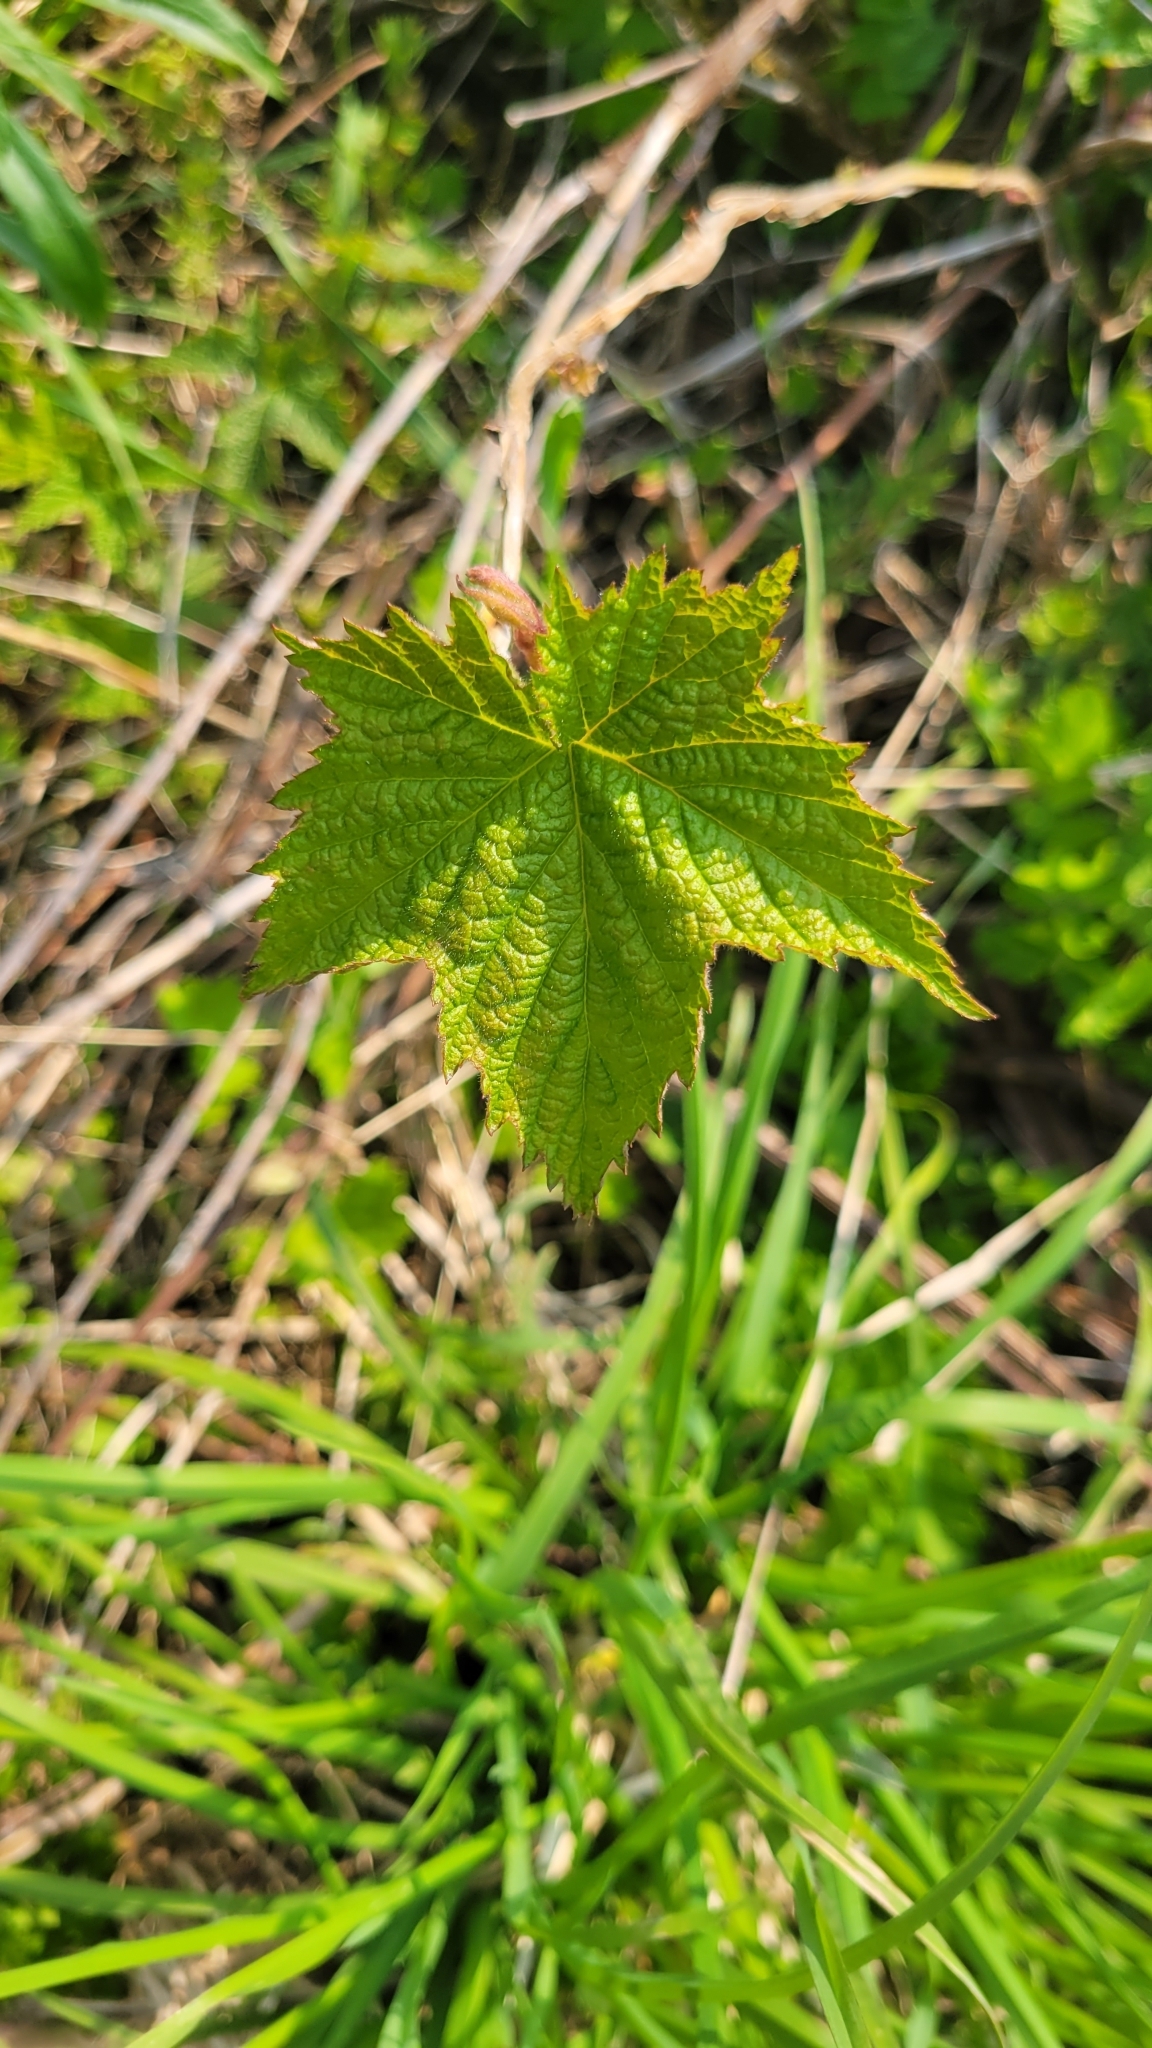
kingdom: Plantae
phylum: Tracheophyta
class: Magnoliopsida
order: Rosales
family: Rosaceae
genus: Rubus
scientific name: Rubus odoratus
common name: Purple-flowered raspberry
